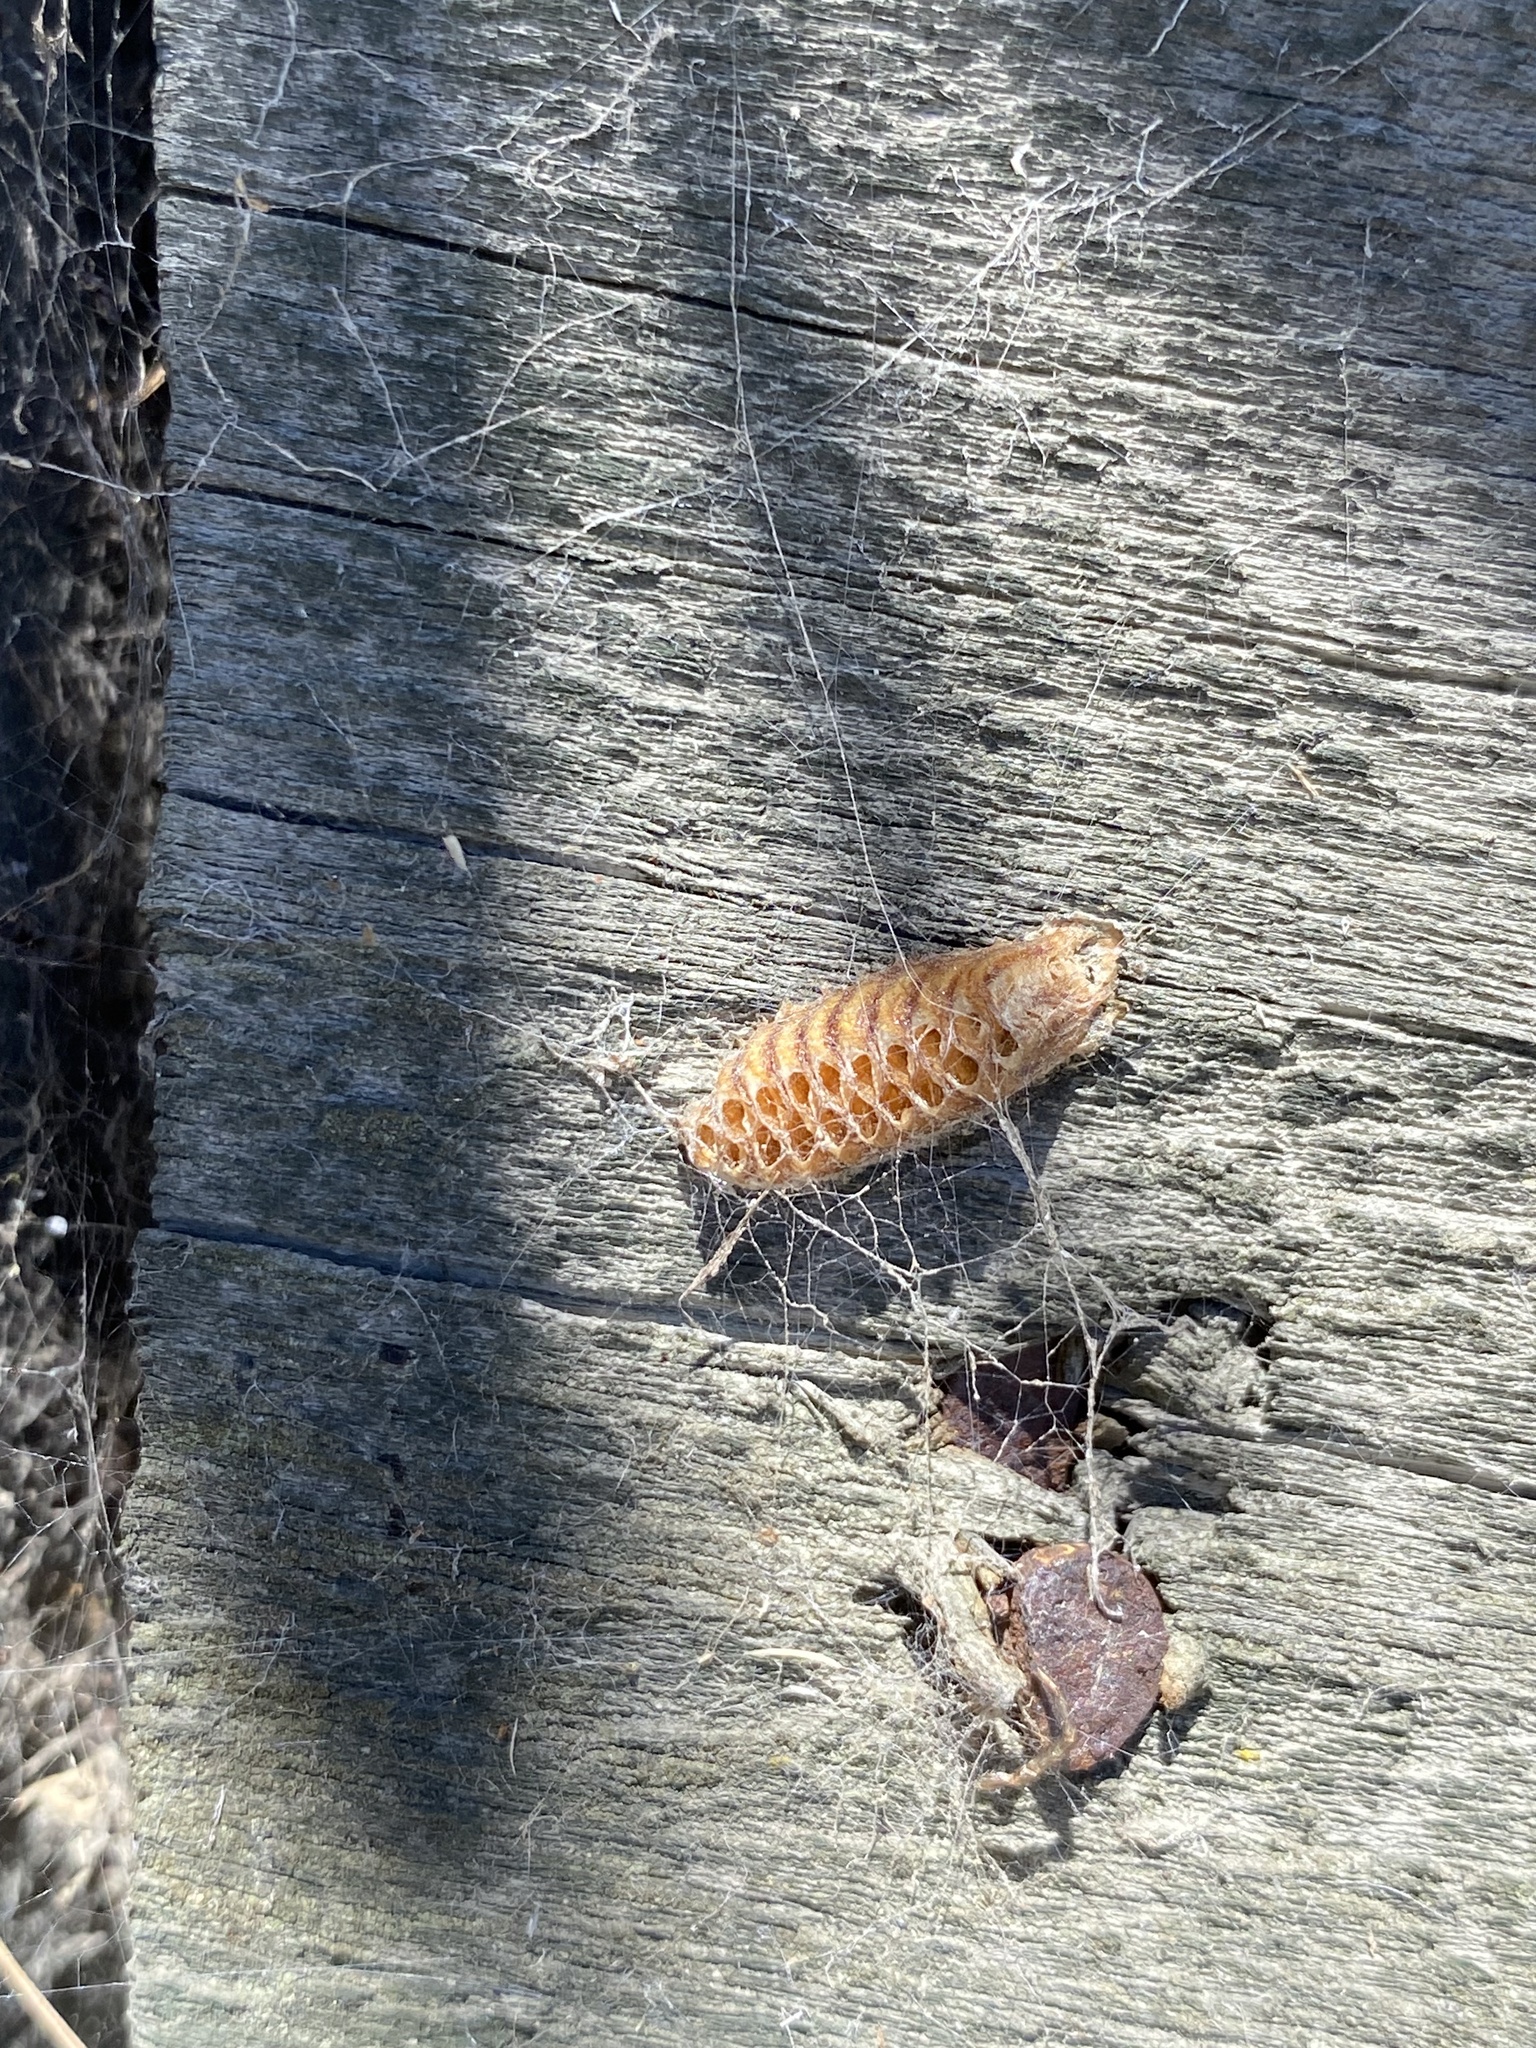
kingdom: Animalia
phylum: Arthropoda
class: Insecta
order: Mantodea
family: Mantidae
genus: Orthodera
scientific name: Orthodera novaezealandiae
